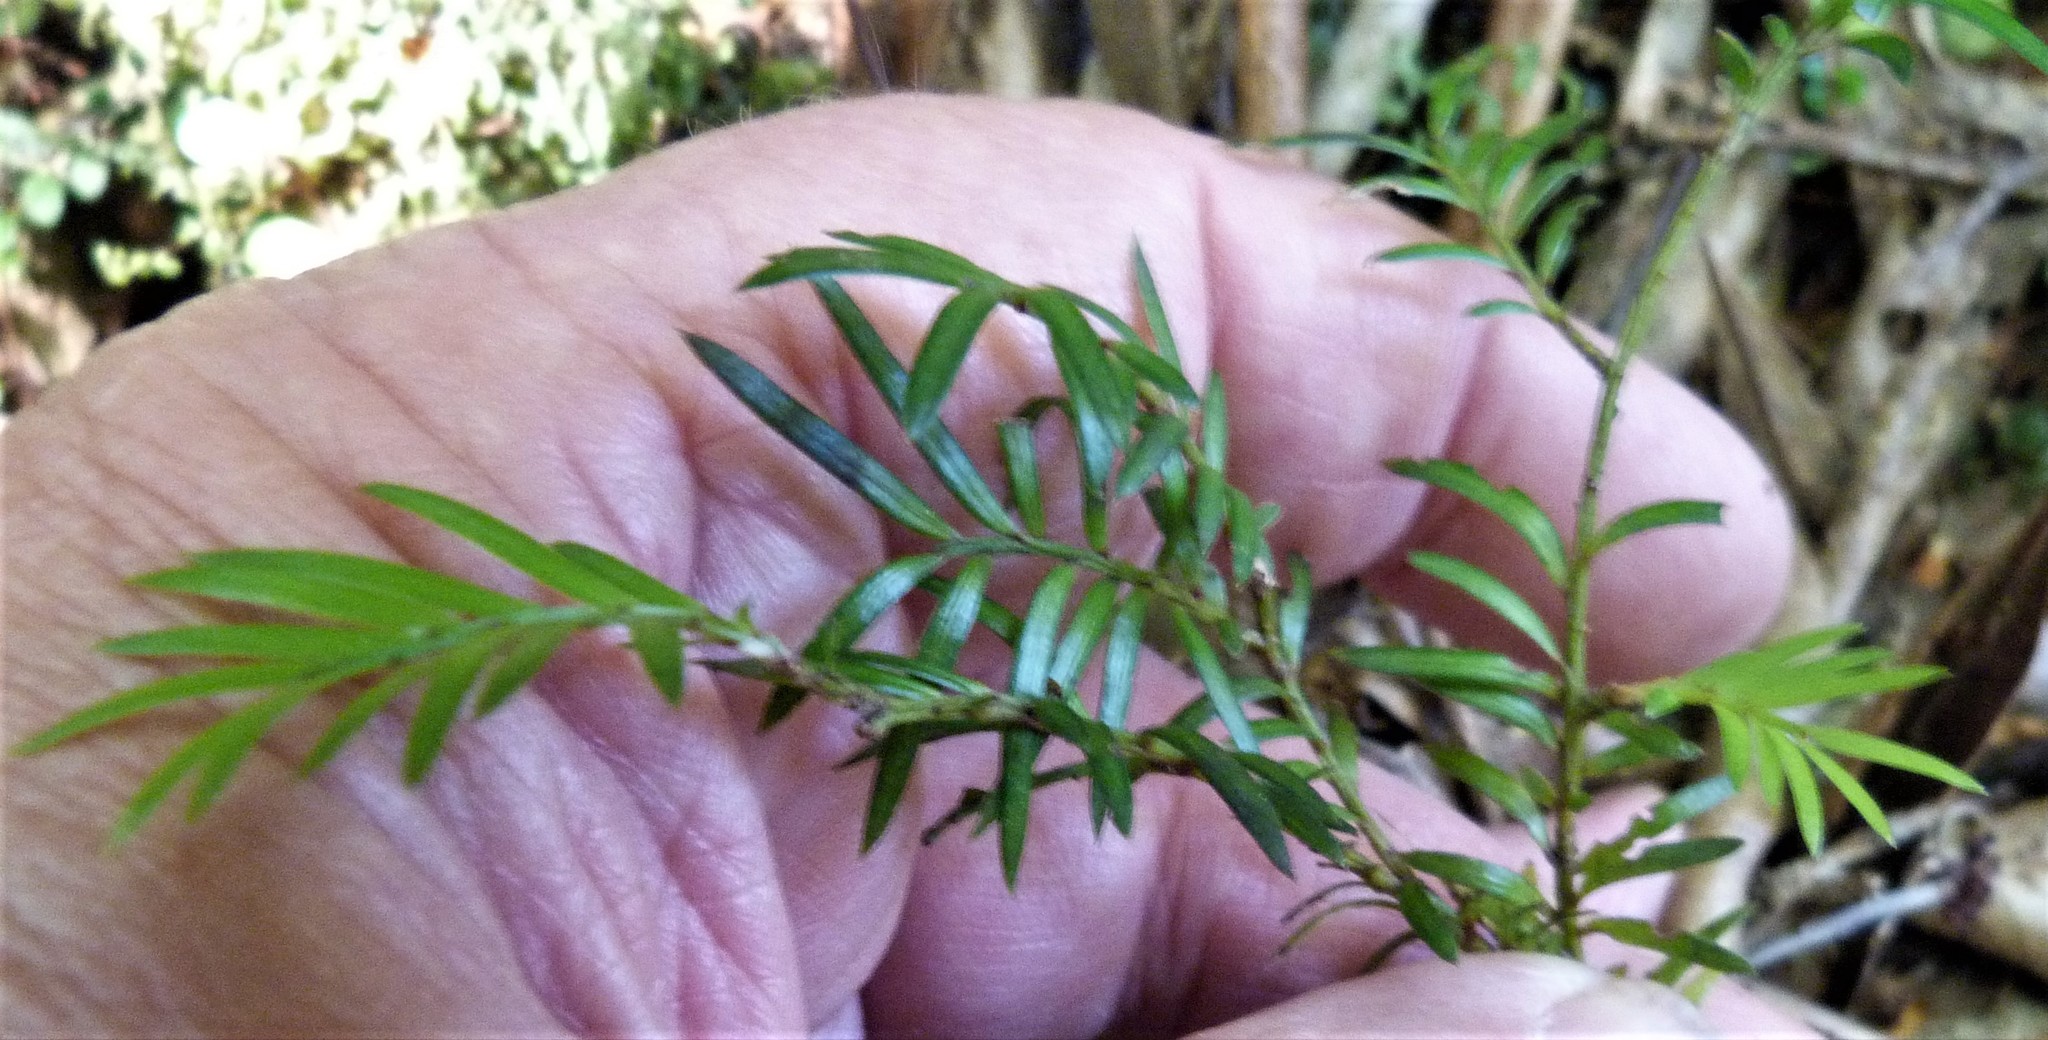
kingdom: Plantae
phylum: Tracheophyta
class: Pinopsida
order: Pinales
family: Podocarpaceae
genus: Prumnopitys
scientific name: Prumnopitys ferruginea
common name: Brown pine
